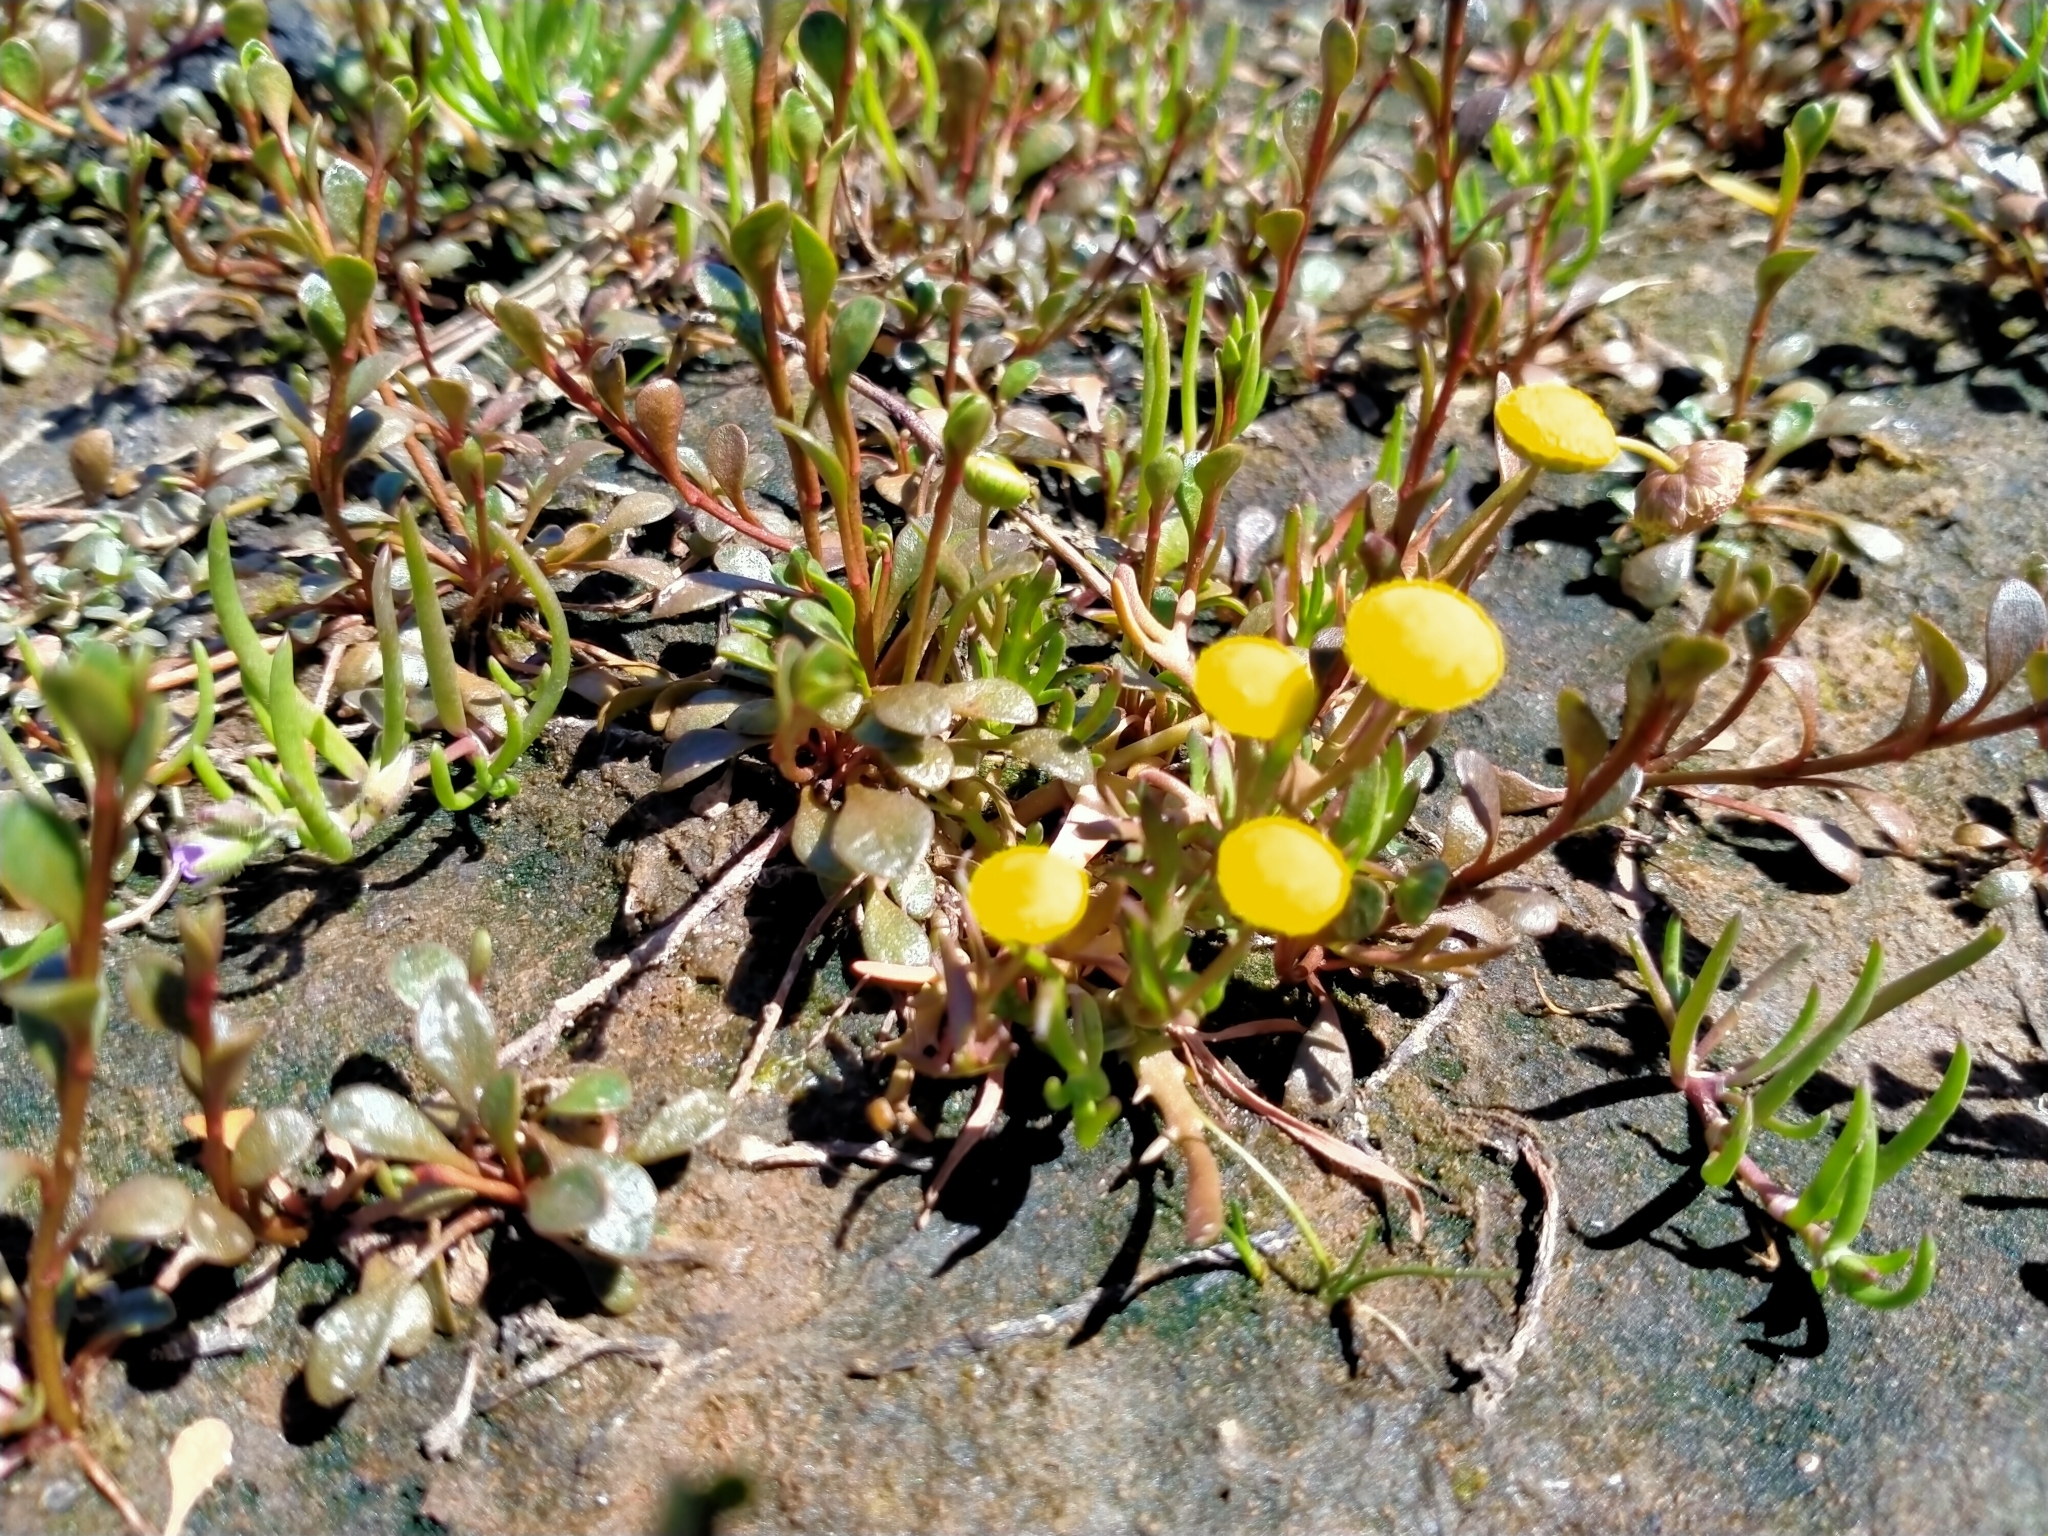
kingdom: Plantae
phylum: Tracheophyta
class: Magnoliopsida
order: Asterales
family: Asteraceae
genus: Cotula
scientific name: Cotula coronopifolia
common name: Buttonweed
